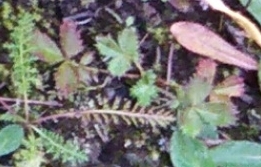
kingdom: Plantae
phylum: Tracheophyta
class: Magnoliopsida
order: Rosales
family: Rosaceae
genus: Potentilla
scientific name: Potentilla stolonifera
